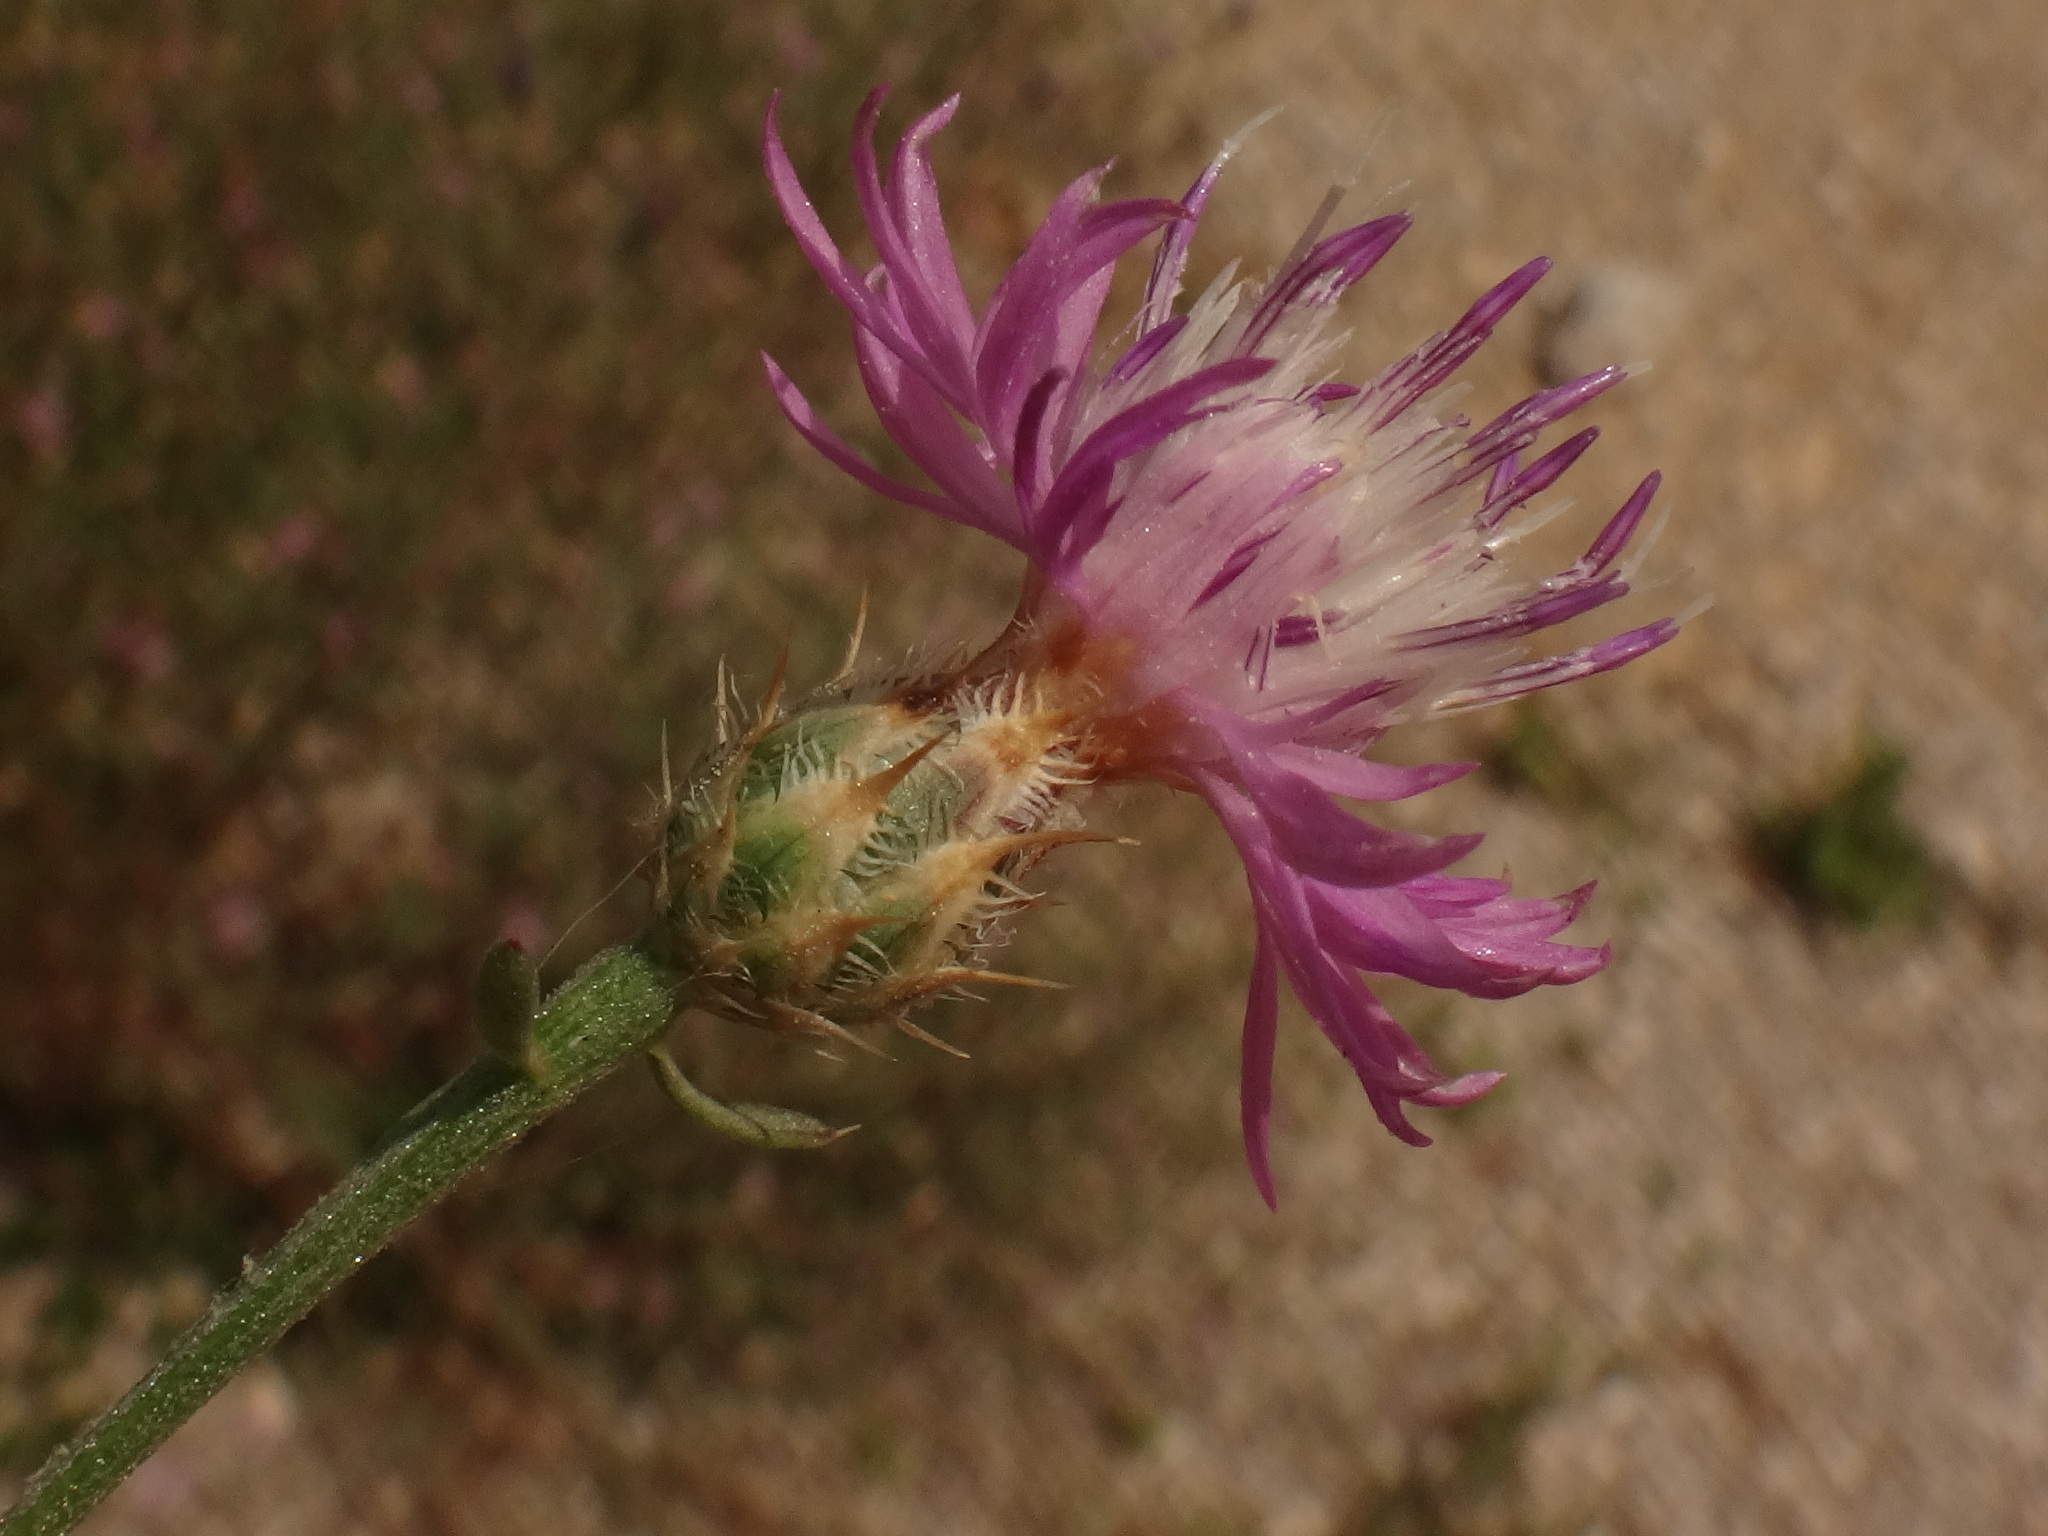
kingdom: Plantae
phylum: Tracheophyta
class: Magnoliopsida
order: Asterales
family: Asteraceae
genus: Centaurea
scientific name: Centaurea spinosociliata
